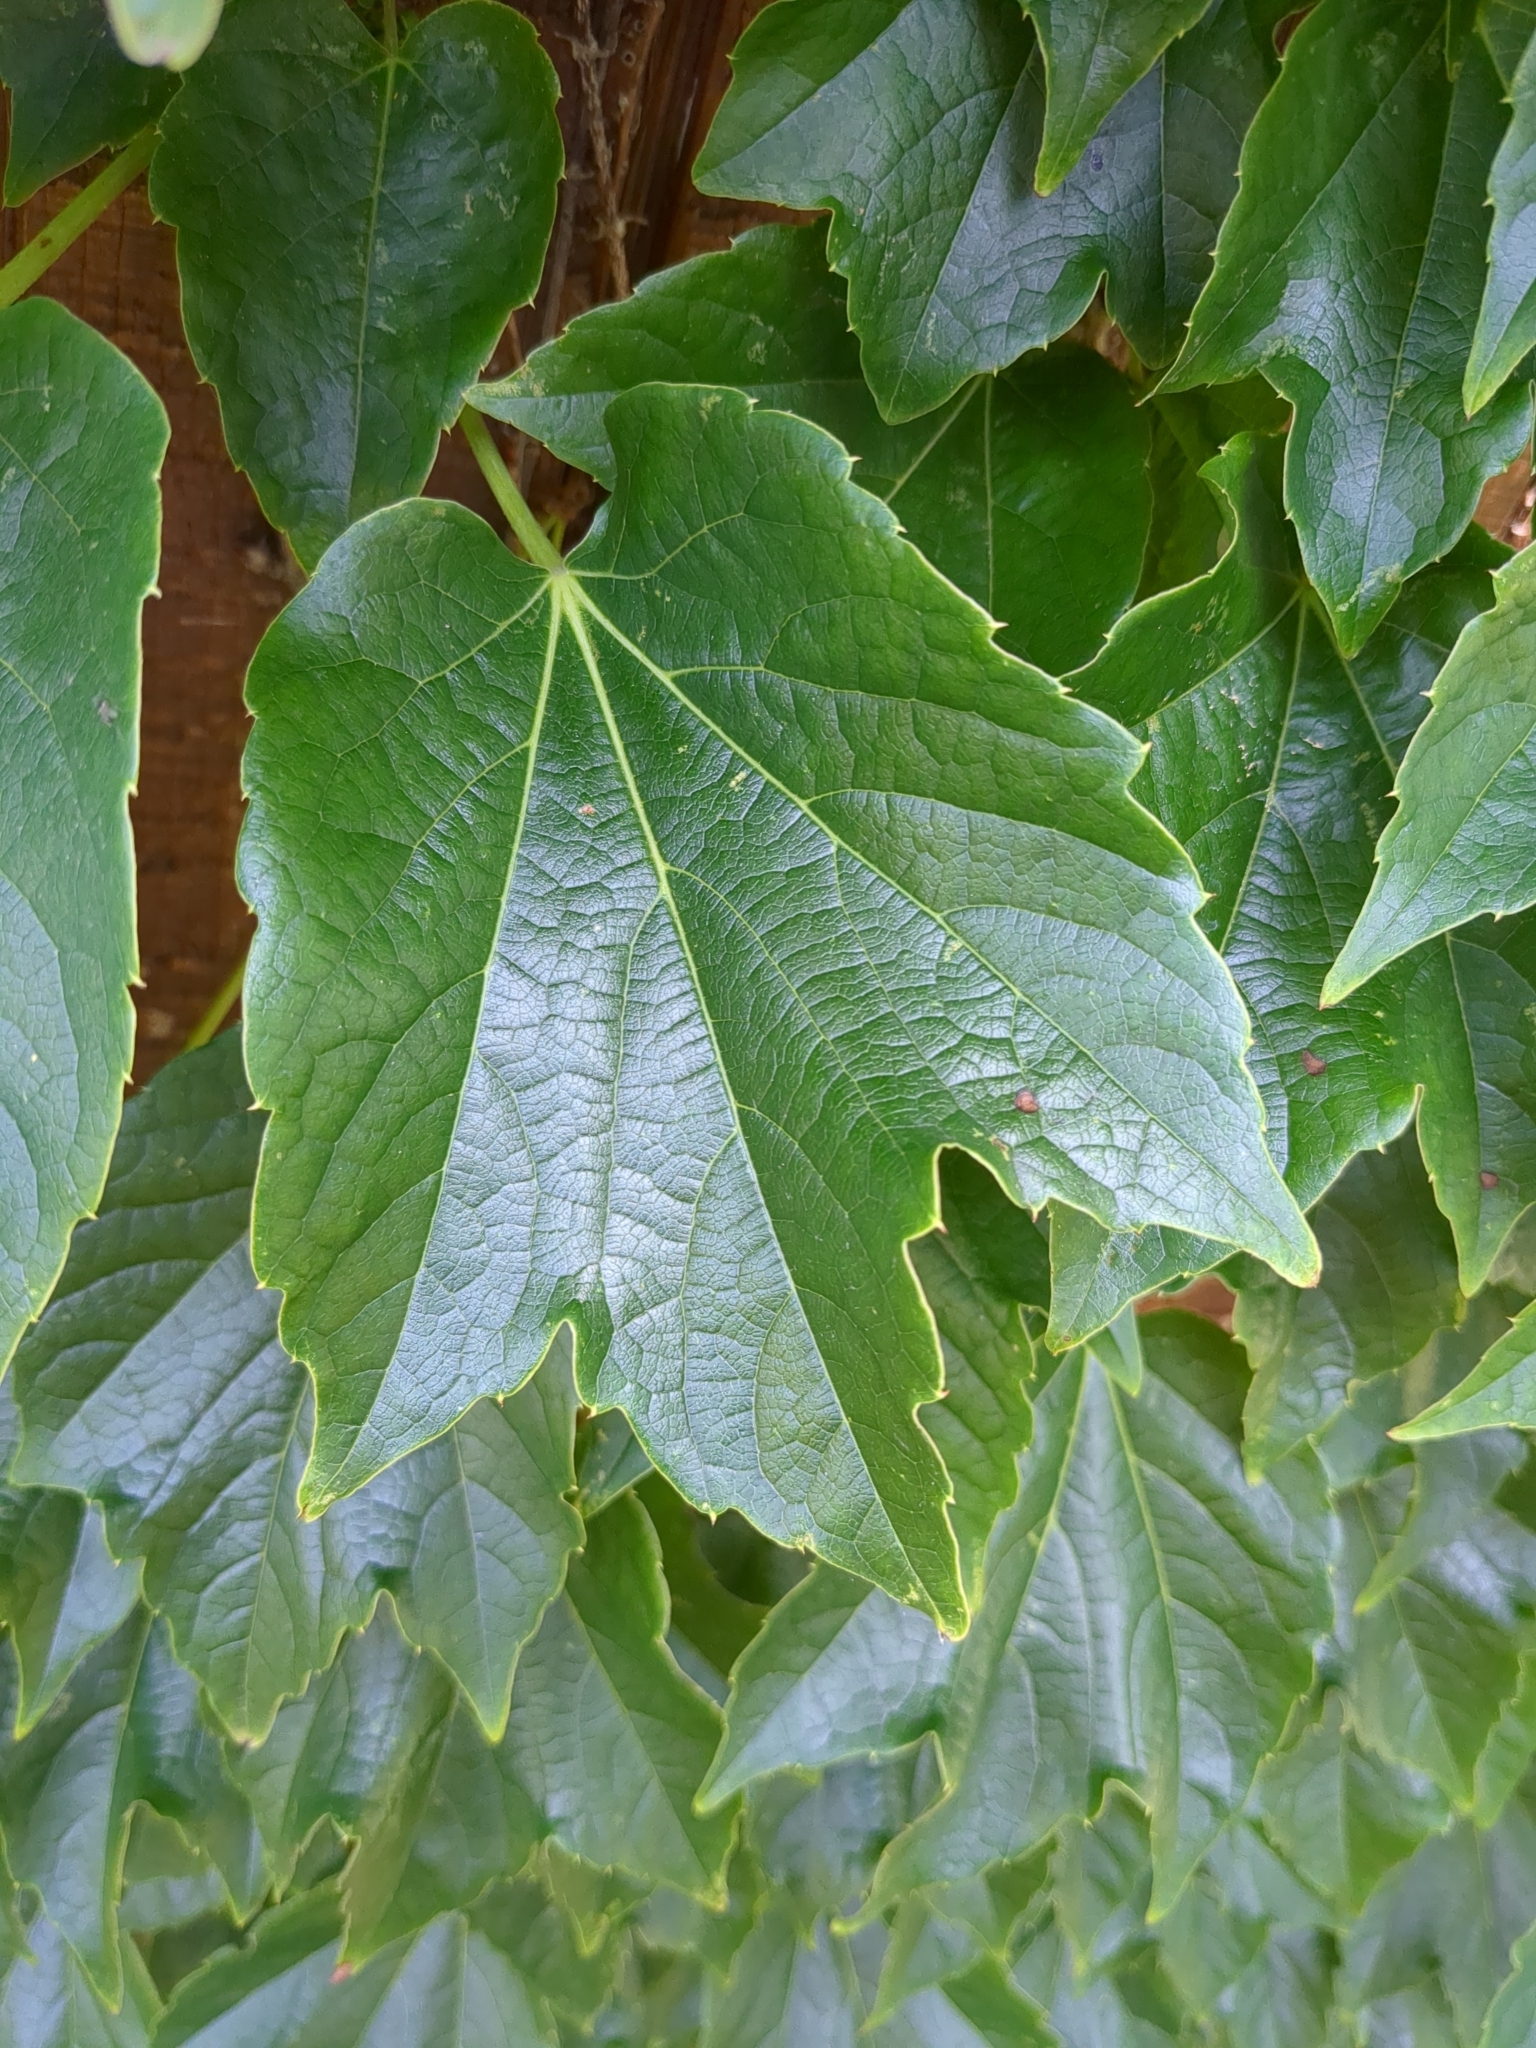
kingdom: Plantae
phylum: Tracheophyta
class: Magnoliopsida
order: Vitales
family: Vitaceae
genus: Parthenocissus
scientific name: Parthenocissus tricuspidata
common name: Boston ivy
